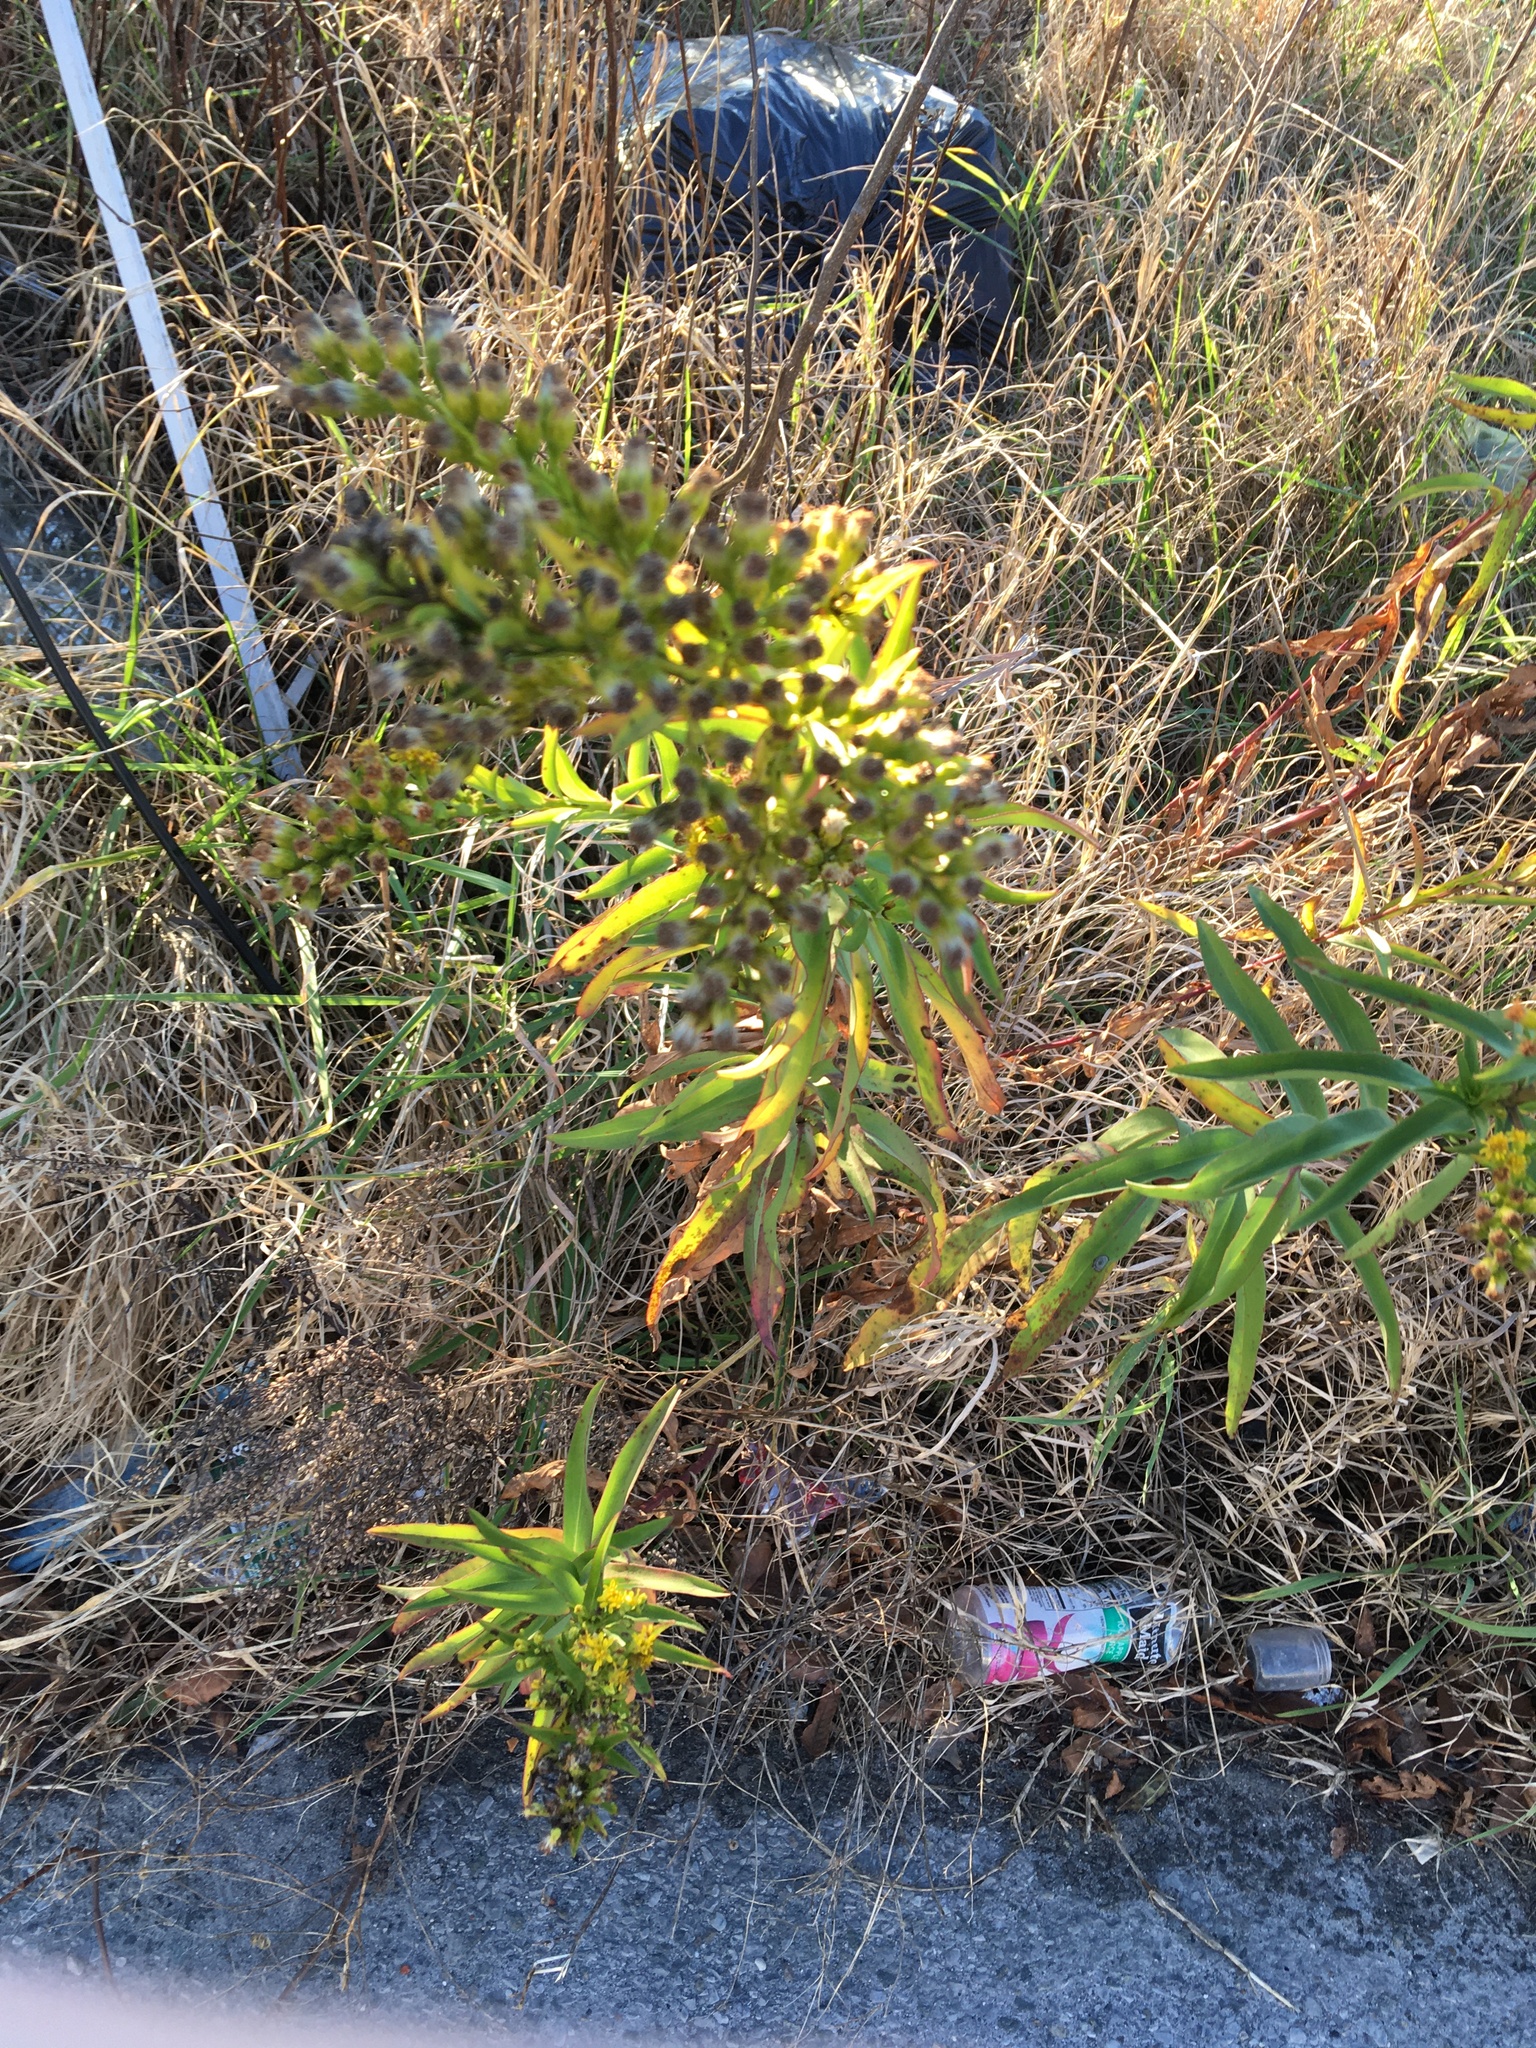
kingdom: Plantae
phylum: Tracheophyta
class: Magnoliopsida
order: Asterales
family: Asteraceae
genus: Solidago
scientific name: Solidago sempervirens
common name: Salt-marsh goldenrod
